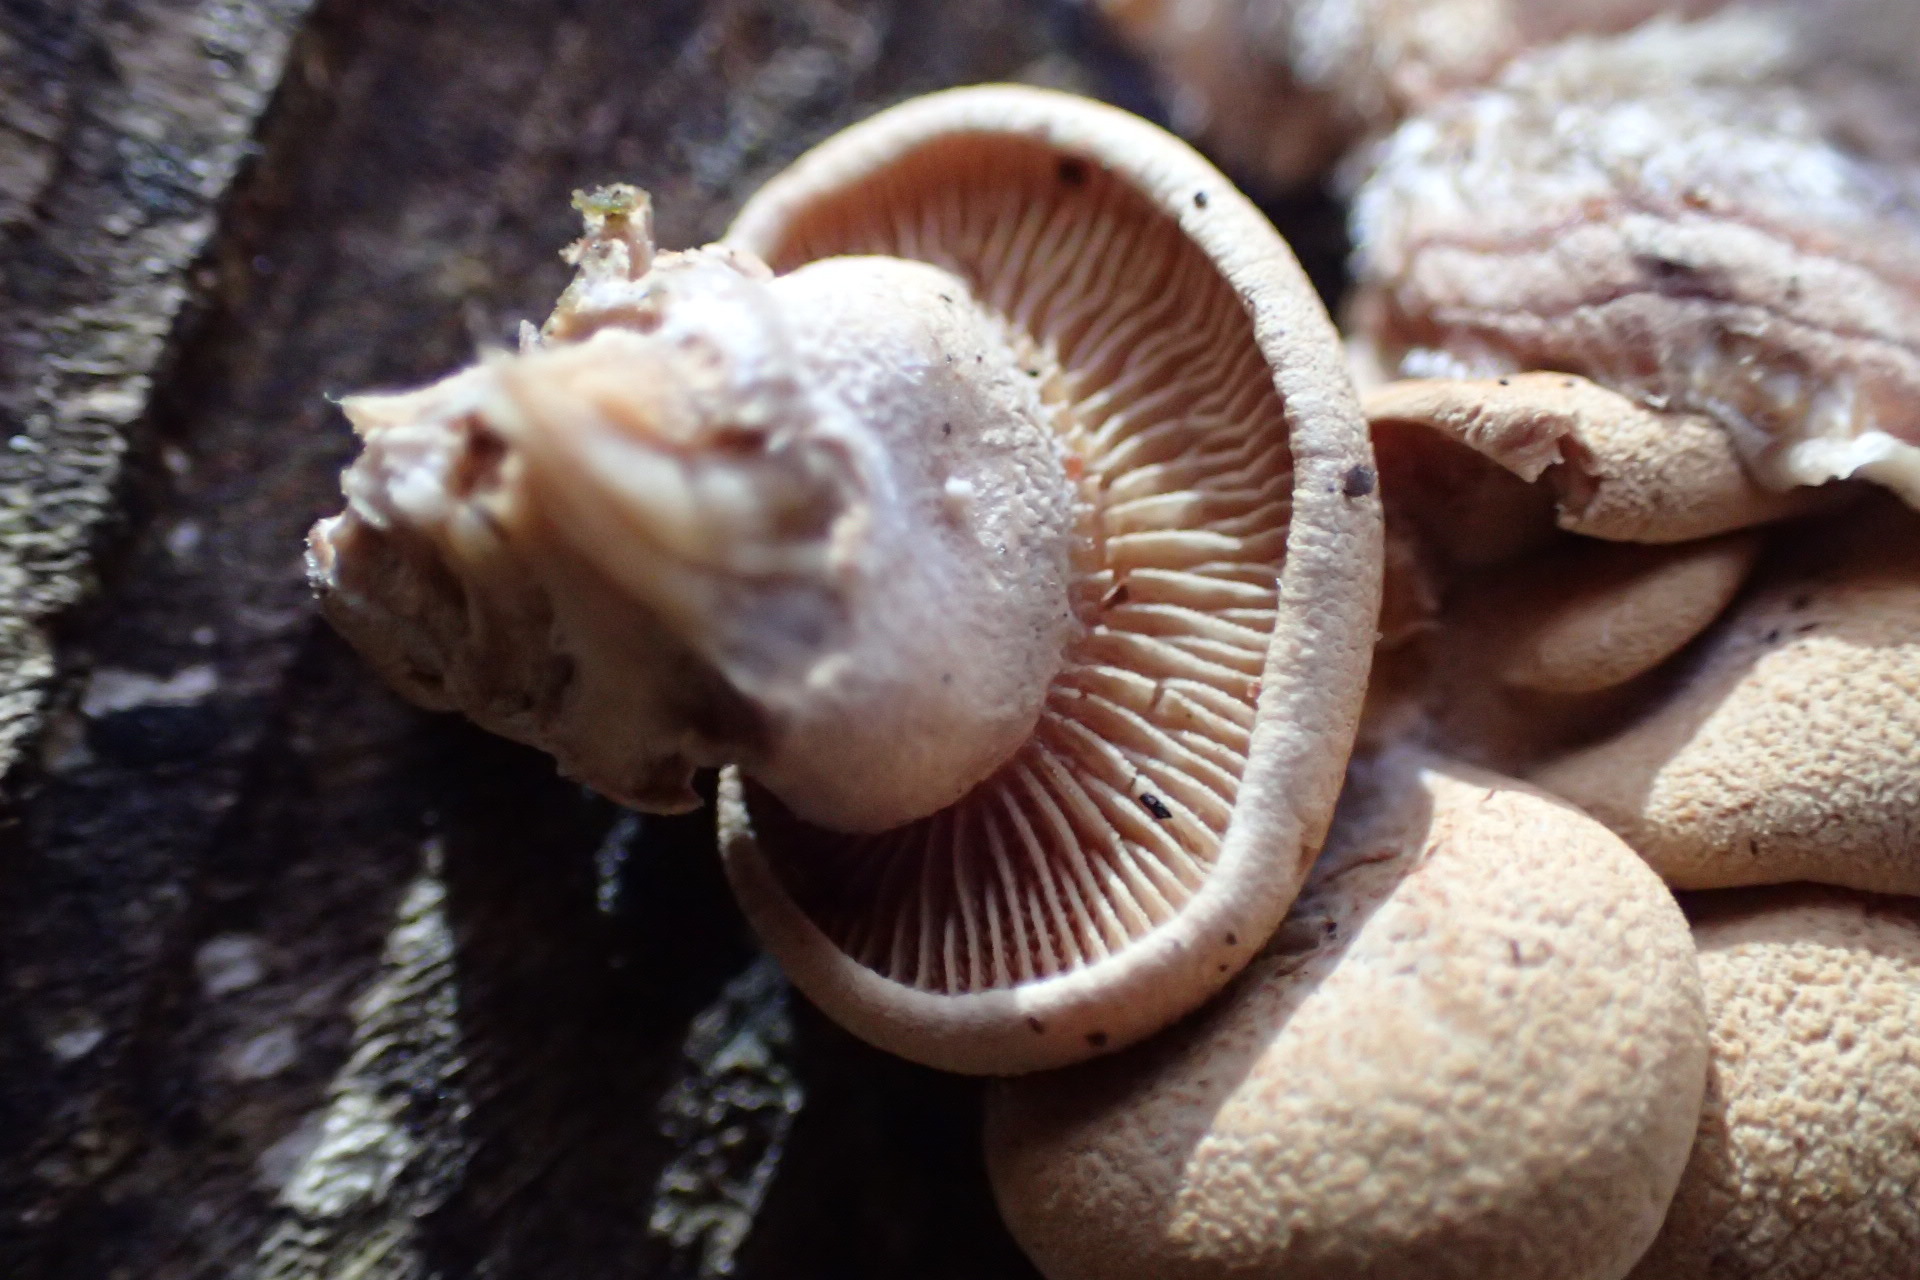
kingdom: Fungi
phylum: Basidiomycota
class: Agaricomycetes
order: Agaricales
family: Mycenaceae
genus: Panellus
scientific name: Panellus stipticus
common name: Bitter oysterling
